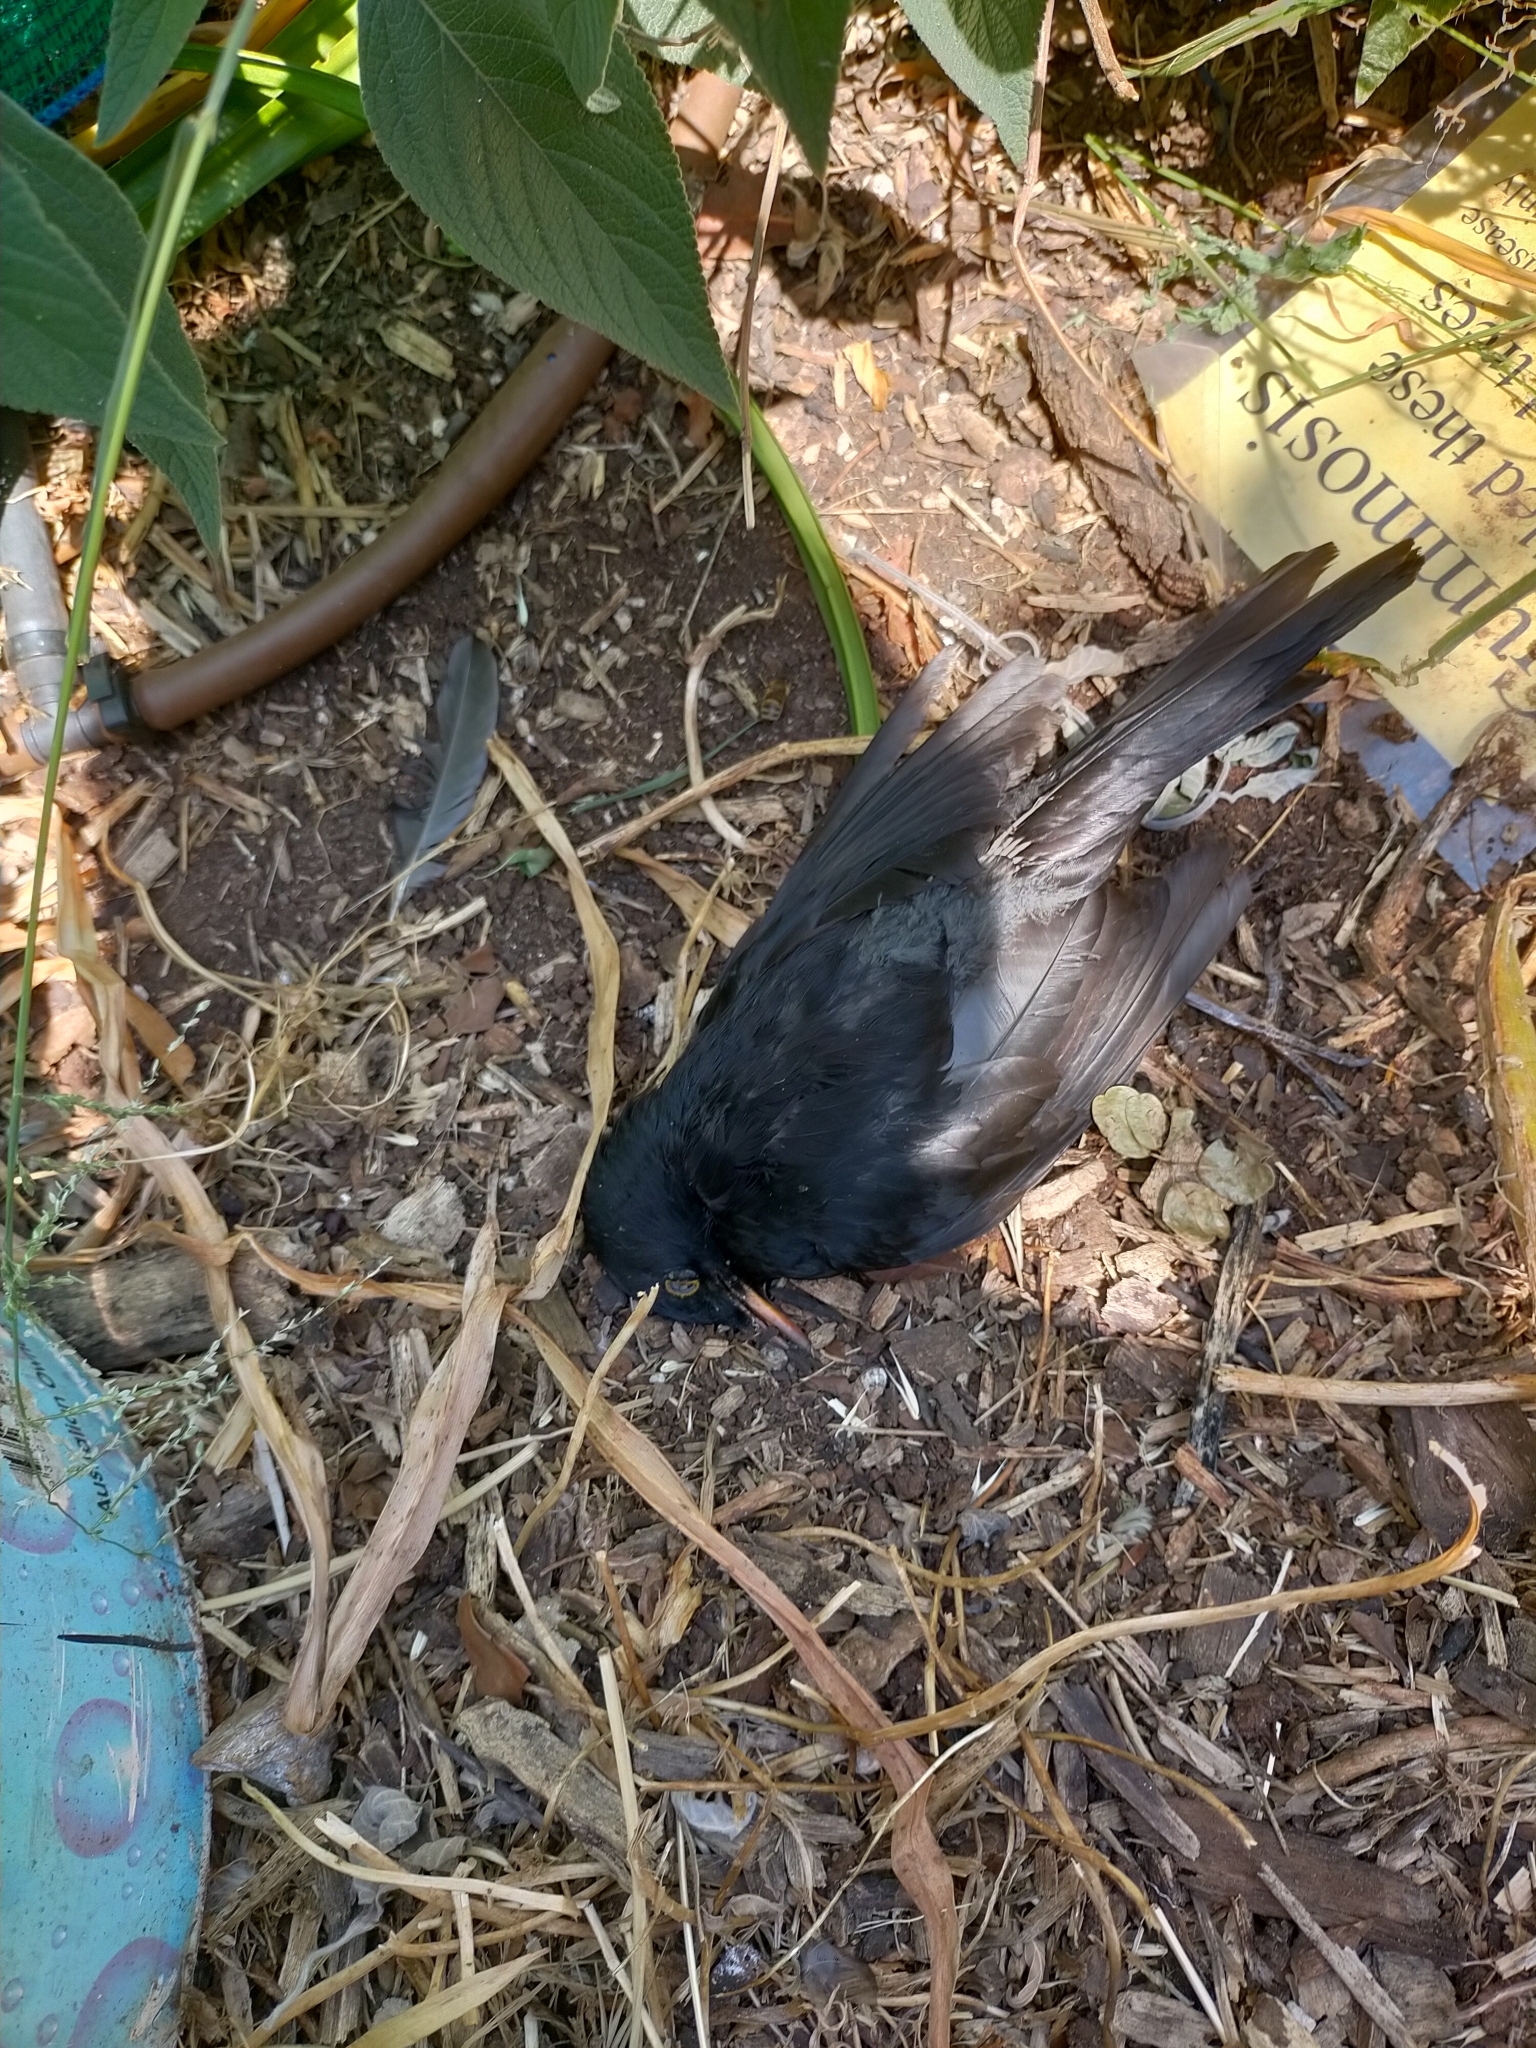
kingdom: Animalia
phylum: Chordata
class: Aves
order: Passeriformes
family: Turdidae
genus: Turdus
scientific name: Turdus merula
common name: Common blackbird
